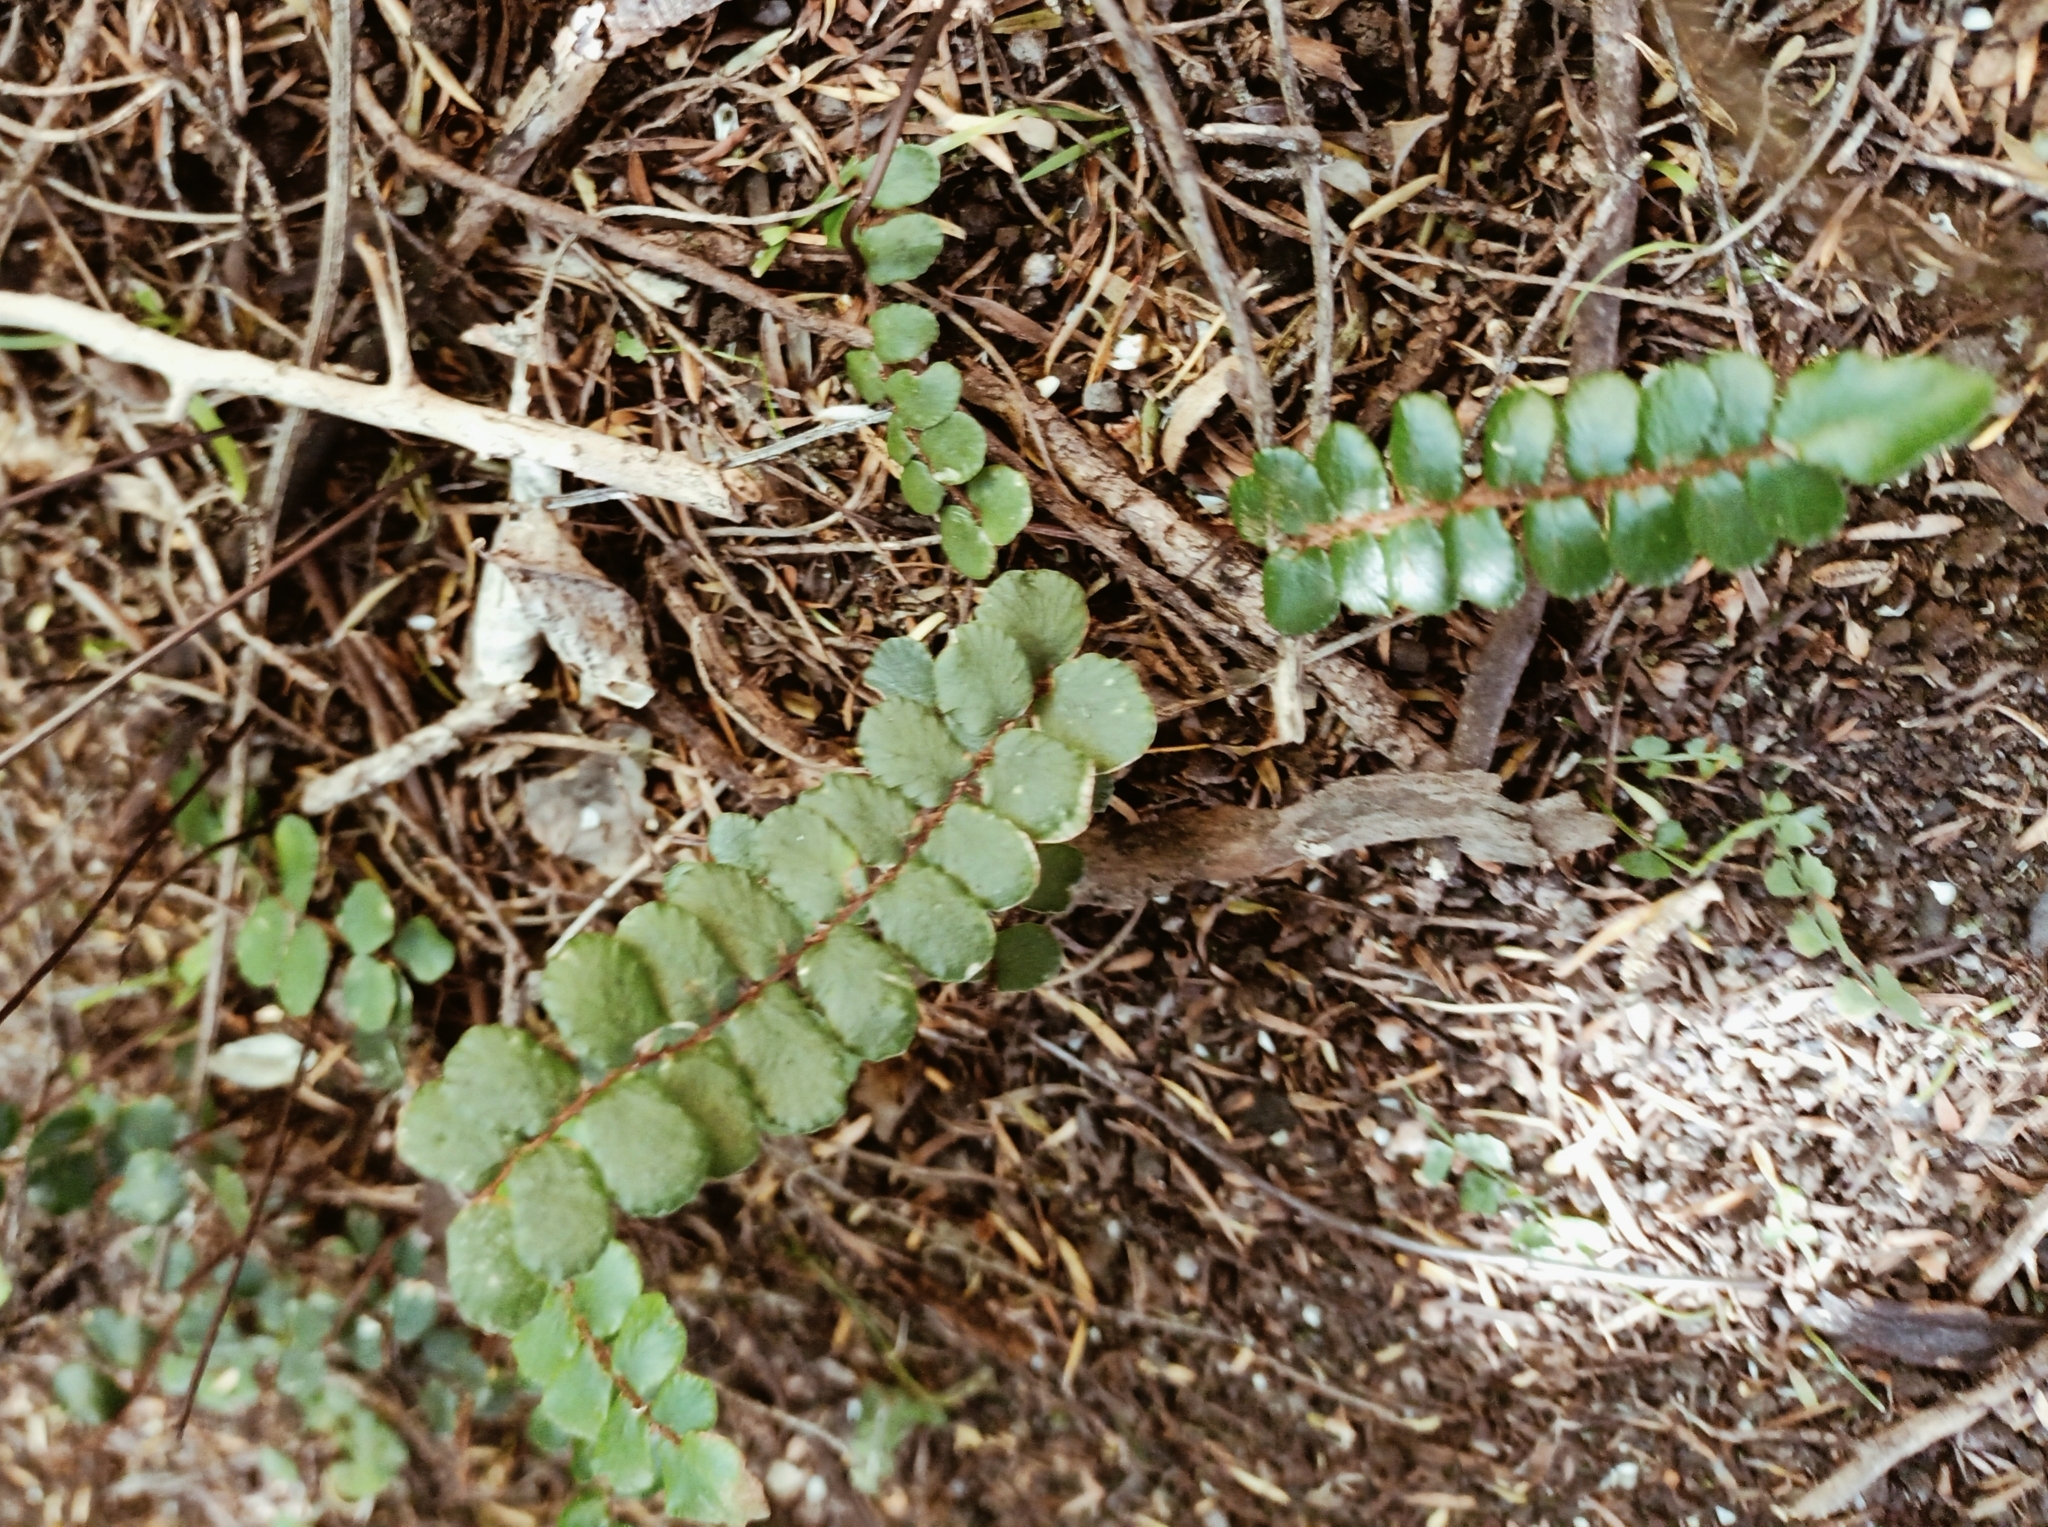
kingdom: Plantae
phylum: Tracheophyta
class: Polypodiopsida
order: Polypodiales
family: Pteridaceae
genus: Pellaea
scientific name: Pellaea rotundifolia
